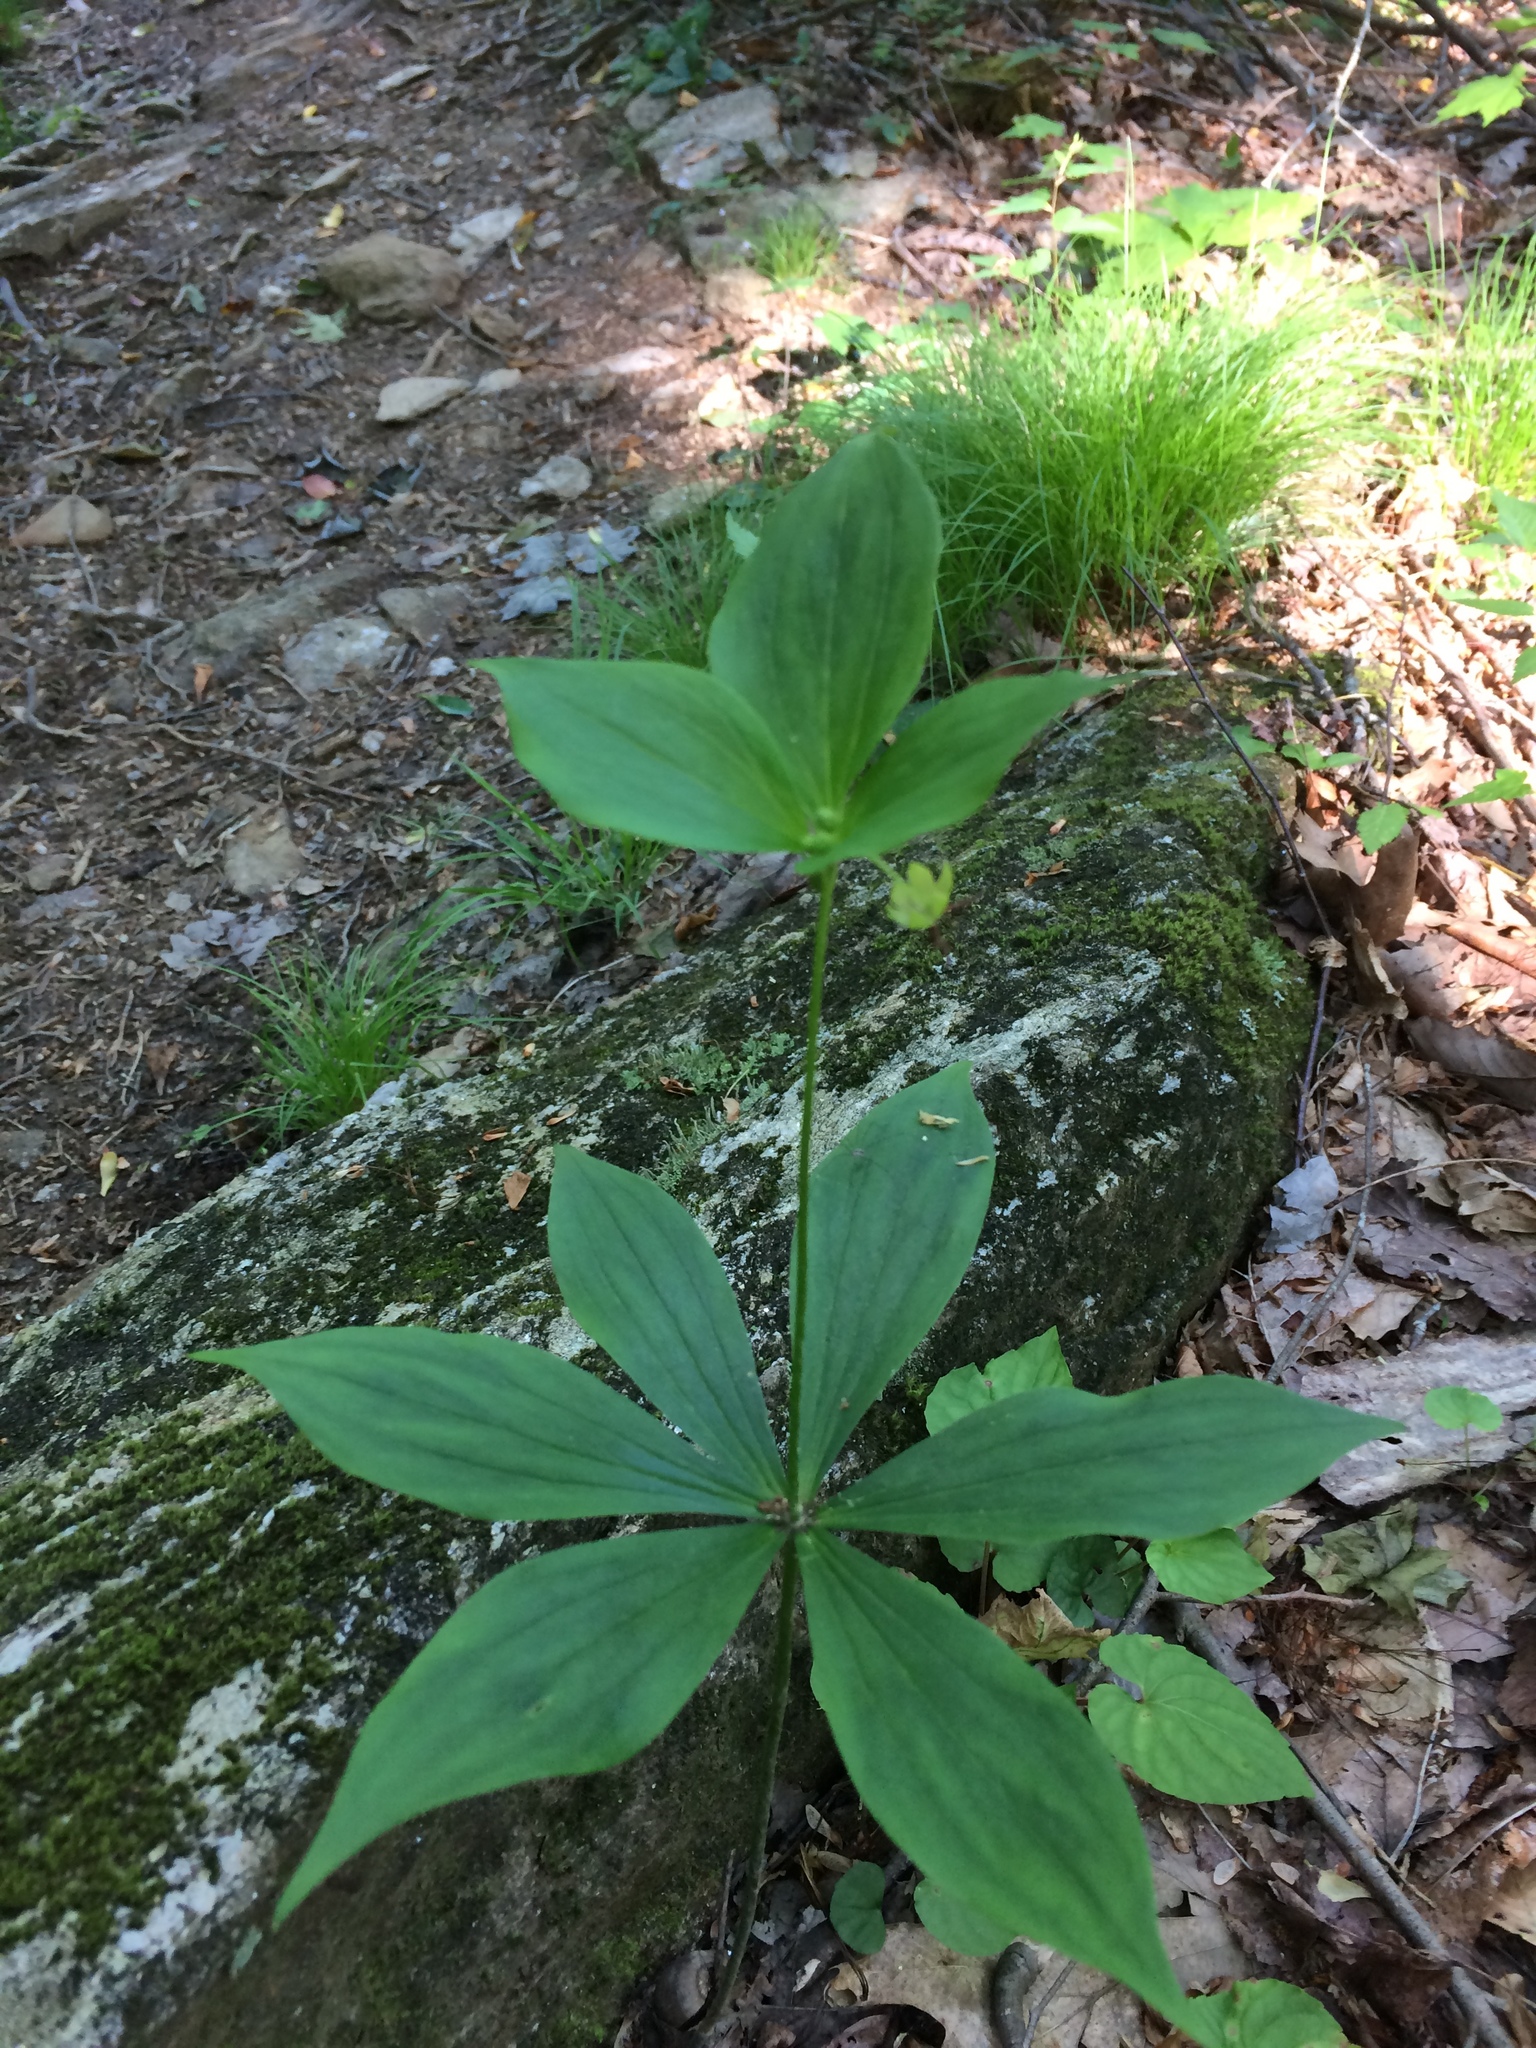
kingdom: Plantae
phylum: Tracheophyta
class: Liliopsida
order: Liliales
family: Liliaceae
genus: Medeola
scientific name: Medeola virginiana
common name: Indian cucumber-root
